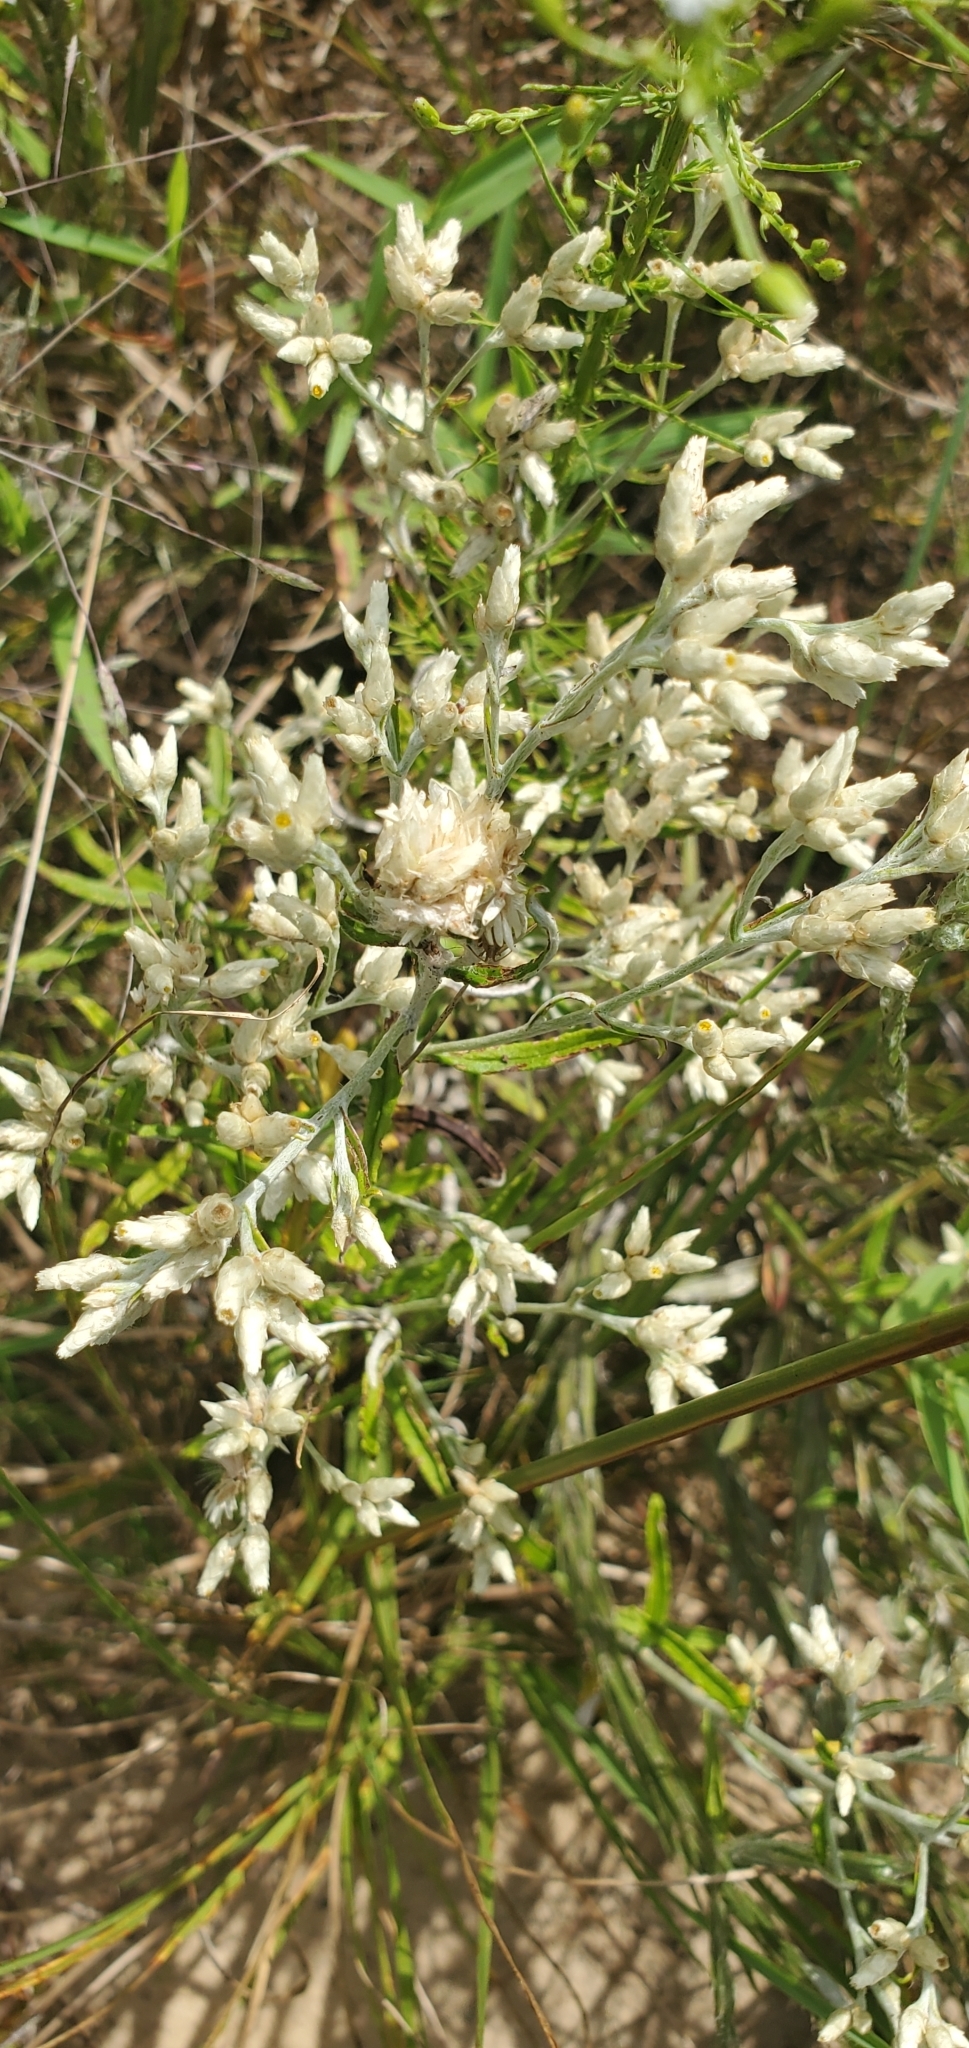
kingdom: Plantae
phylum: Tracheophyta
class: Magnoliopsida
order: Asterales
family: Asteraceae
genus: Pseudognaphalium
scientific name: Pseudognaphalium obtusifolium
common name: Eastern rabbit-tobacco
